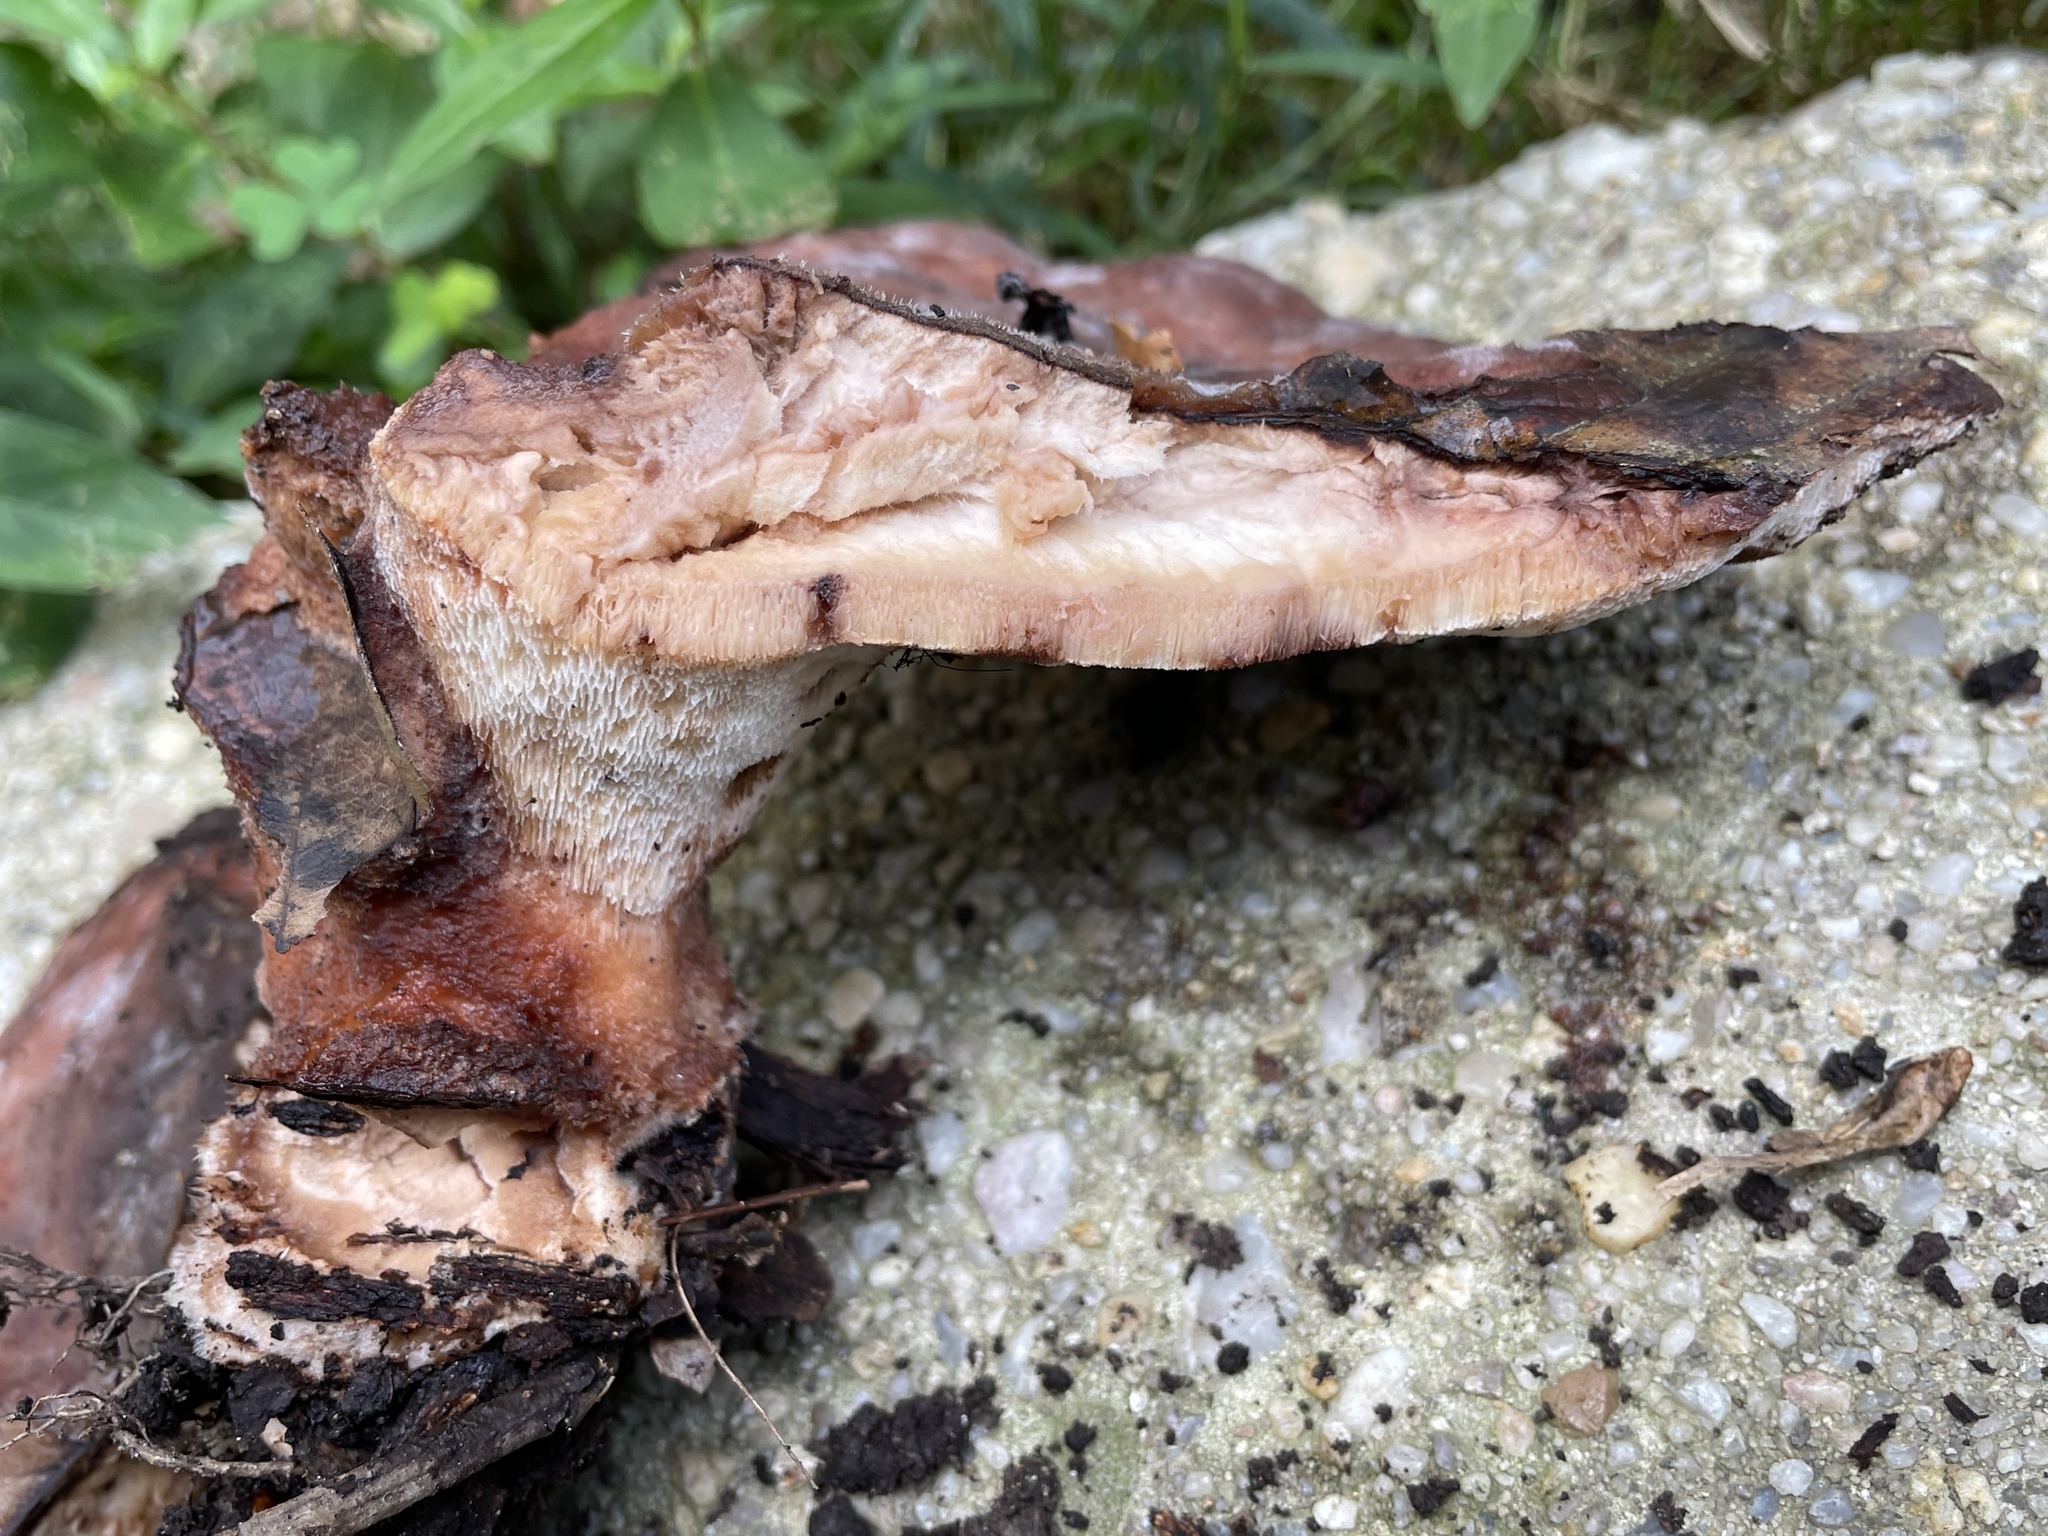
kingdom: Fungi
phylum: Basidiomycota
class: Agaricomycetes
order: Polyporales
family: Laetiporaceae
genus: Berkcurtia
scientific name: Berkcurtia persicina
